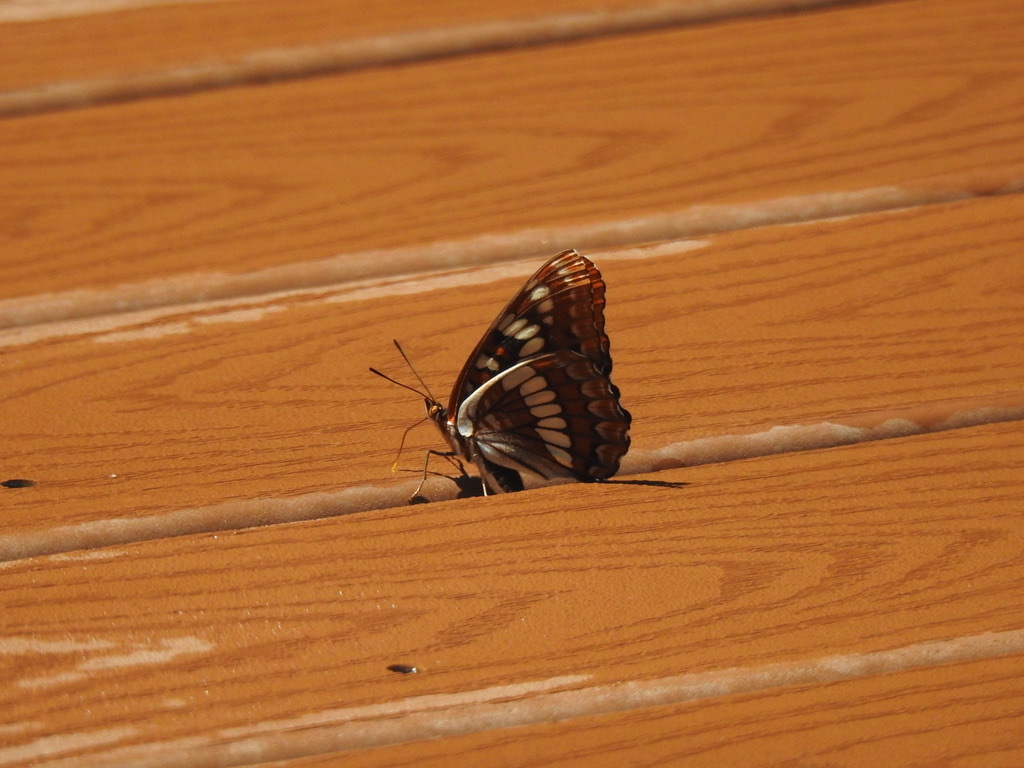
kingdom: Animalia
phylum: Arthropoda
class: Insecta
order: Lepidoptera
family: Nymphalidae
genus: Limenitis
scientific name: Limenitis lorquini
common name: Lorquin's admiral
